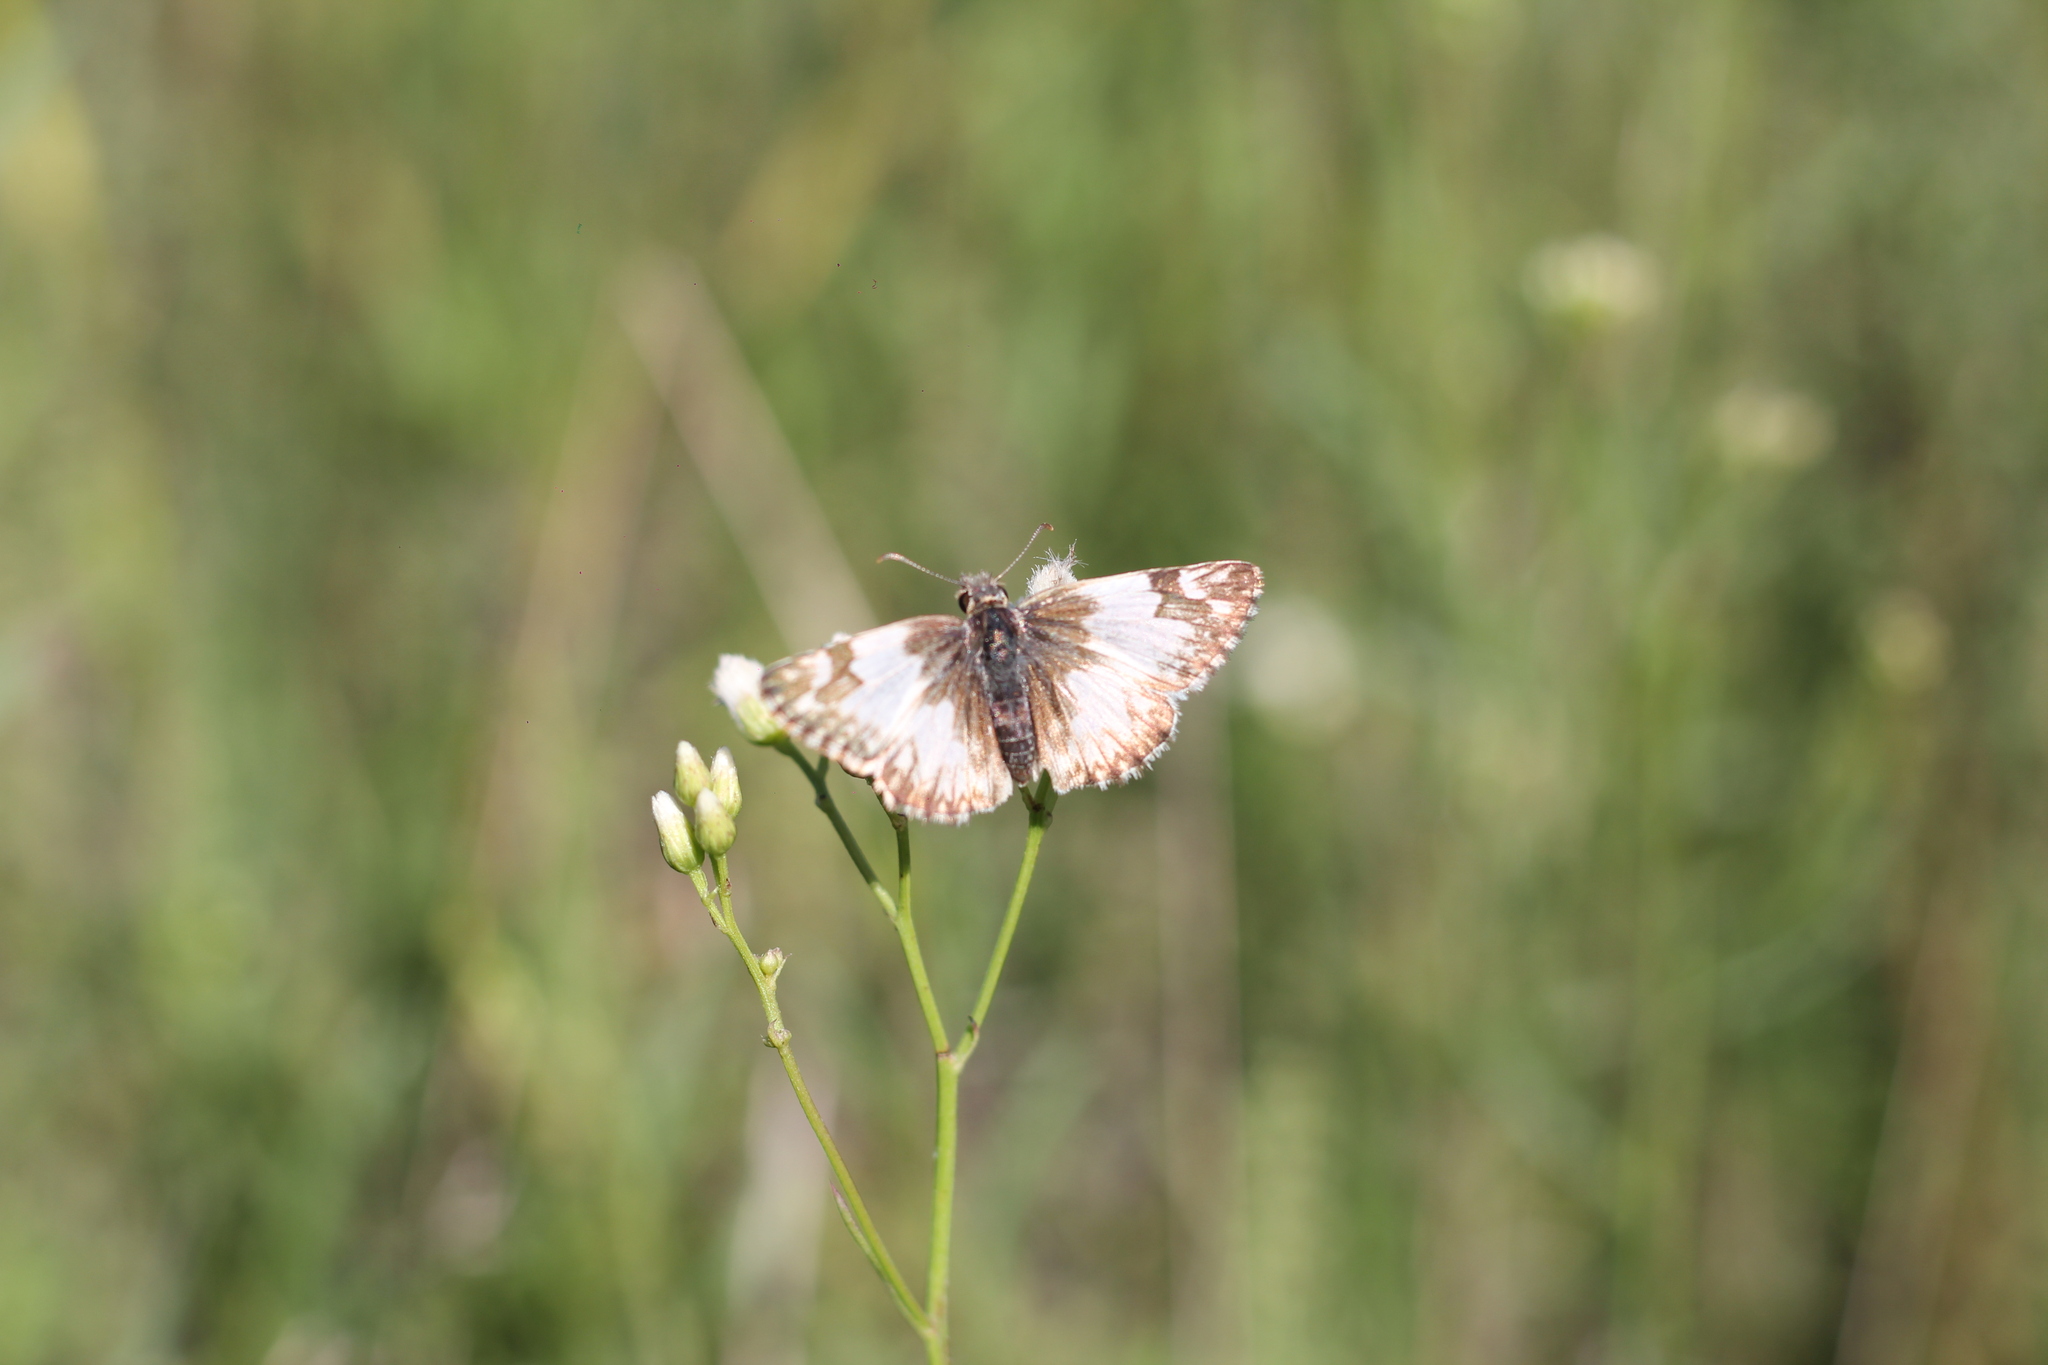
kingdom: Animalia
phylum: Arthropoda
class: Insecta
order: Lepidoptera
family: Hesperiidae
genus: Heliopetes
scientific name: Heliopetes omrina
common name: Stained white-skipper
